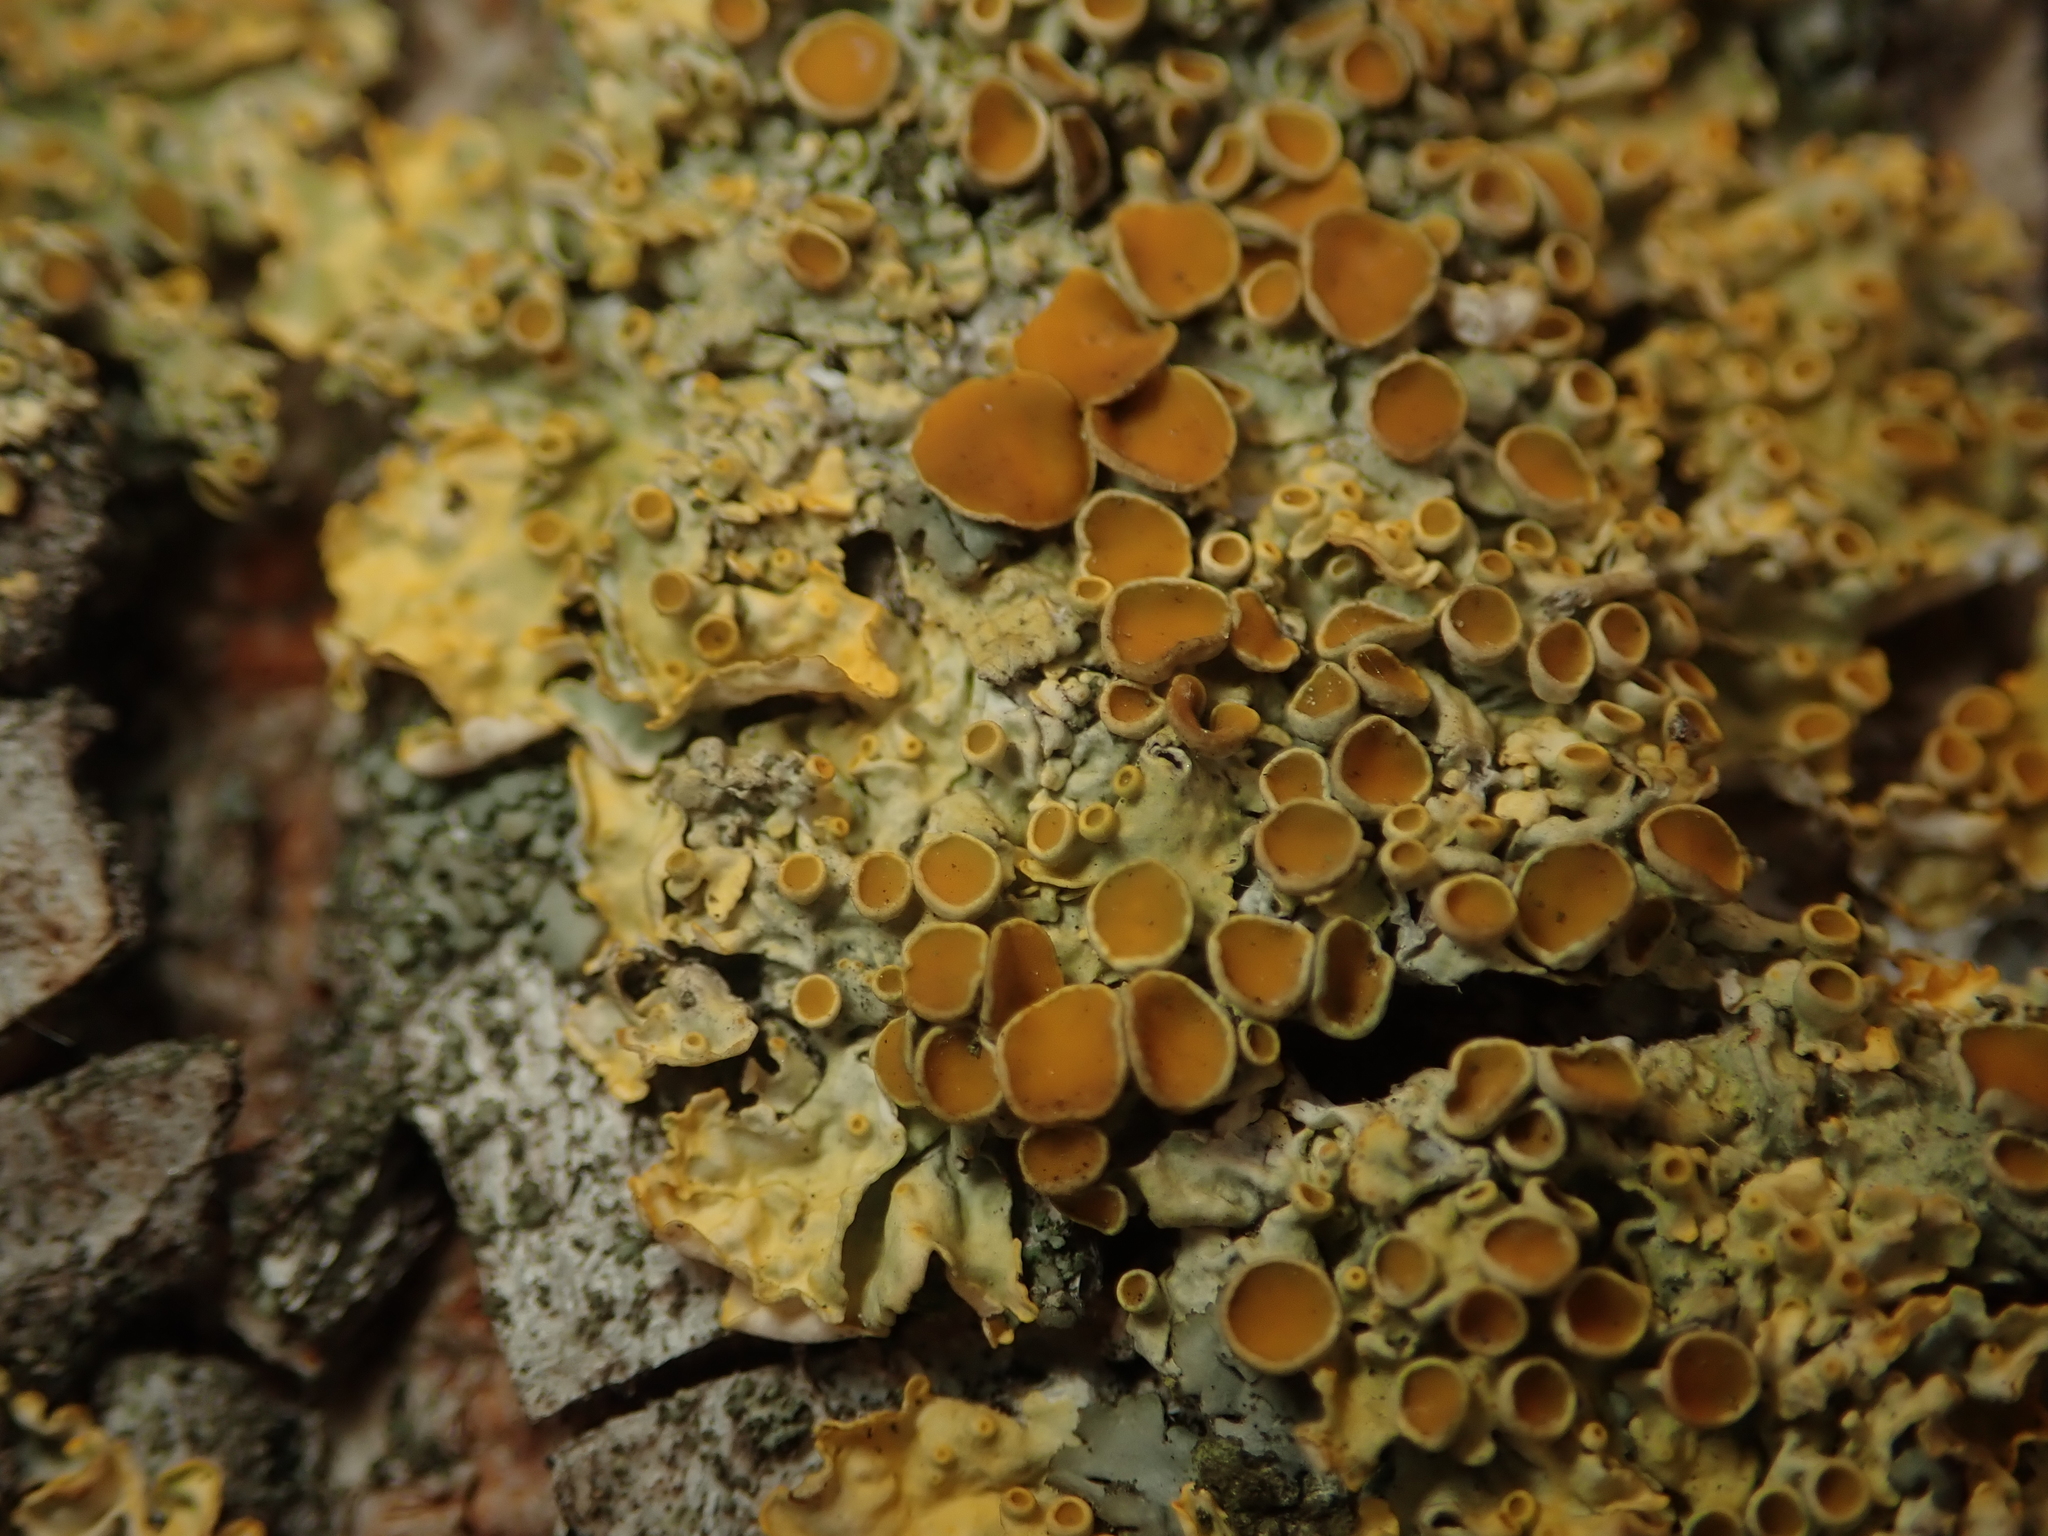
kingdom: Fungi
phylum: Ascomycota
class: Lecanoromycetes
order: Teloschistales
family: Teloschistaceae
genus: Xanthoria
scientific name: Xanthoria parietina
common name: Common orange lichen
